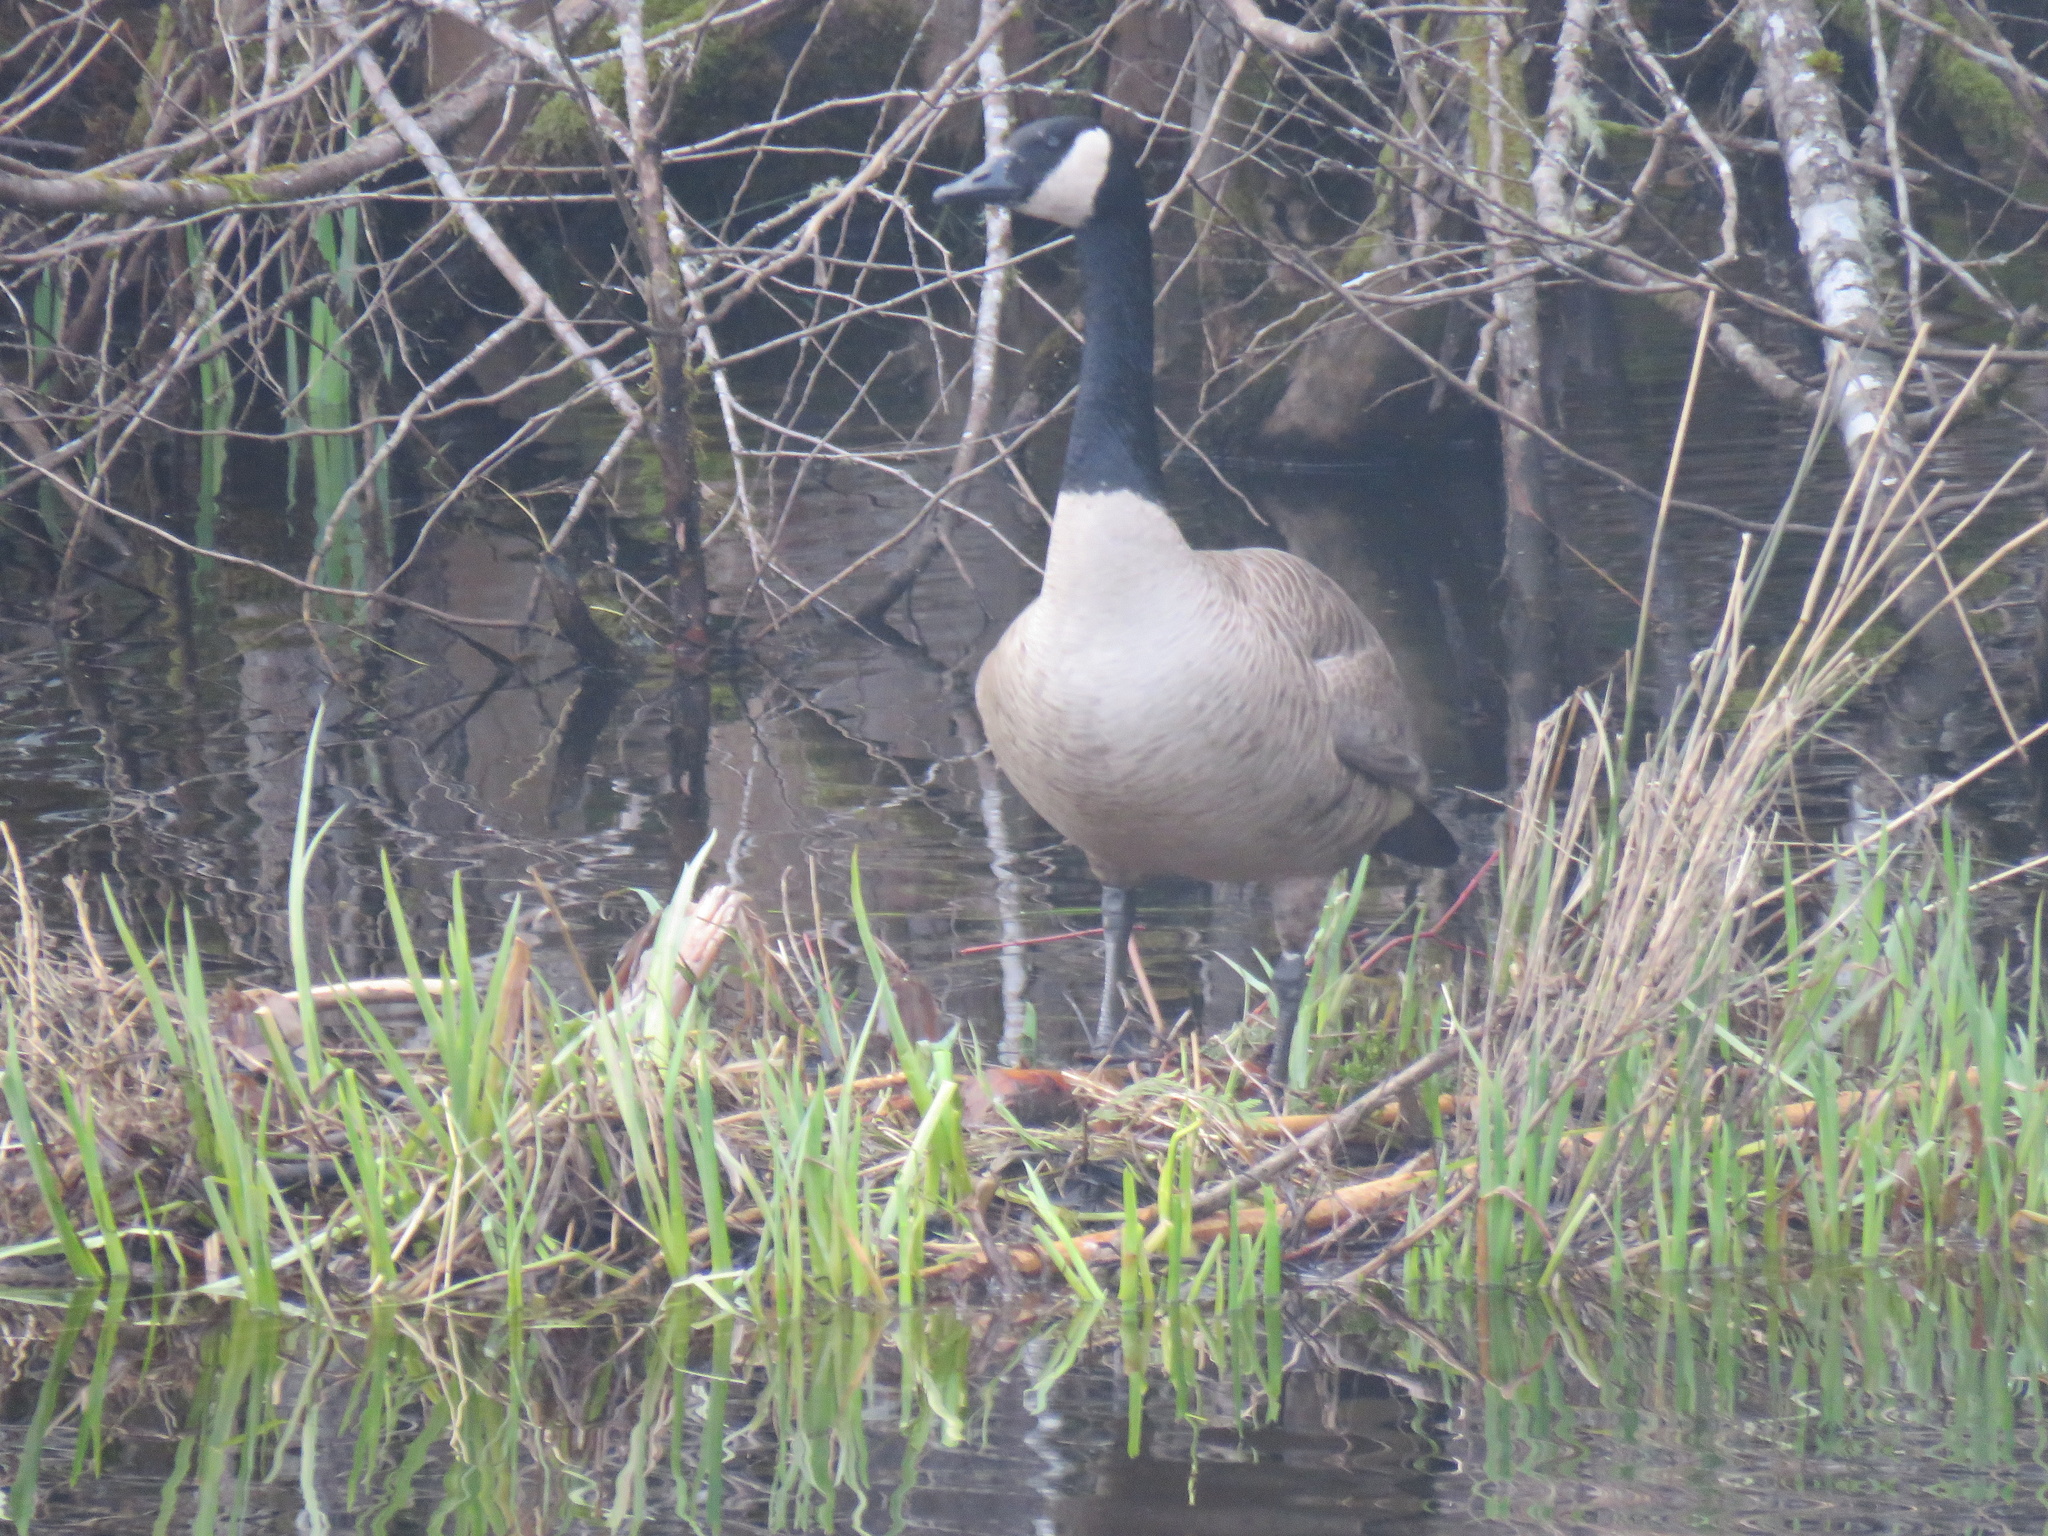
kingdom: Animalia
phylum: Chordata
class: Aves
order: Anseriformes
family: Anatidae
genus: Branta
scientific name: Branta canadensis
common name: Canada goose
